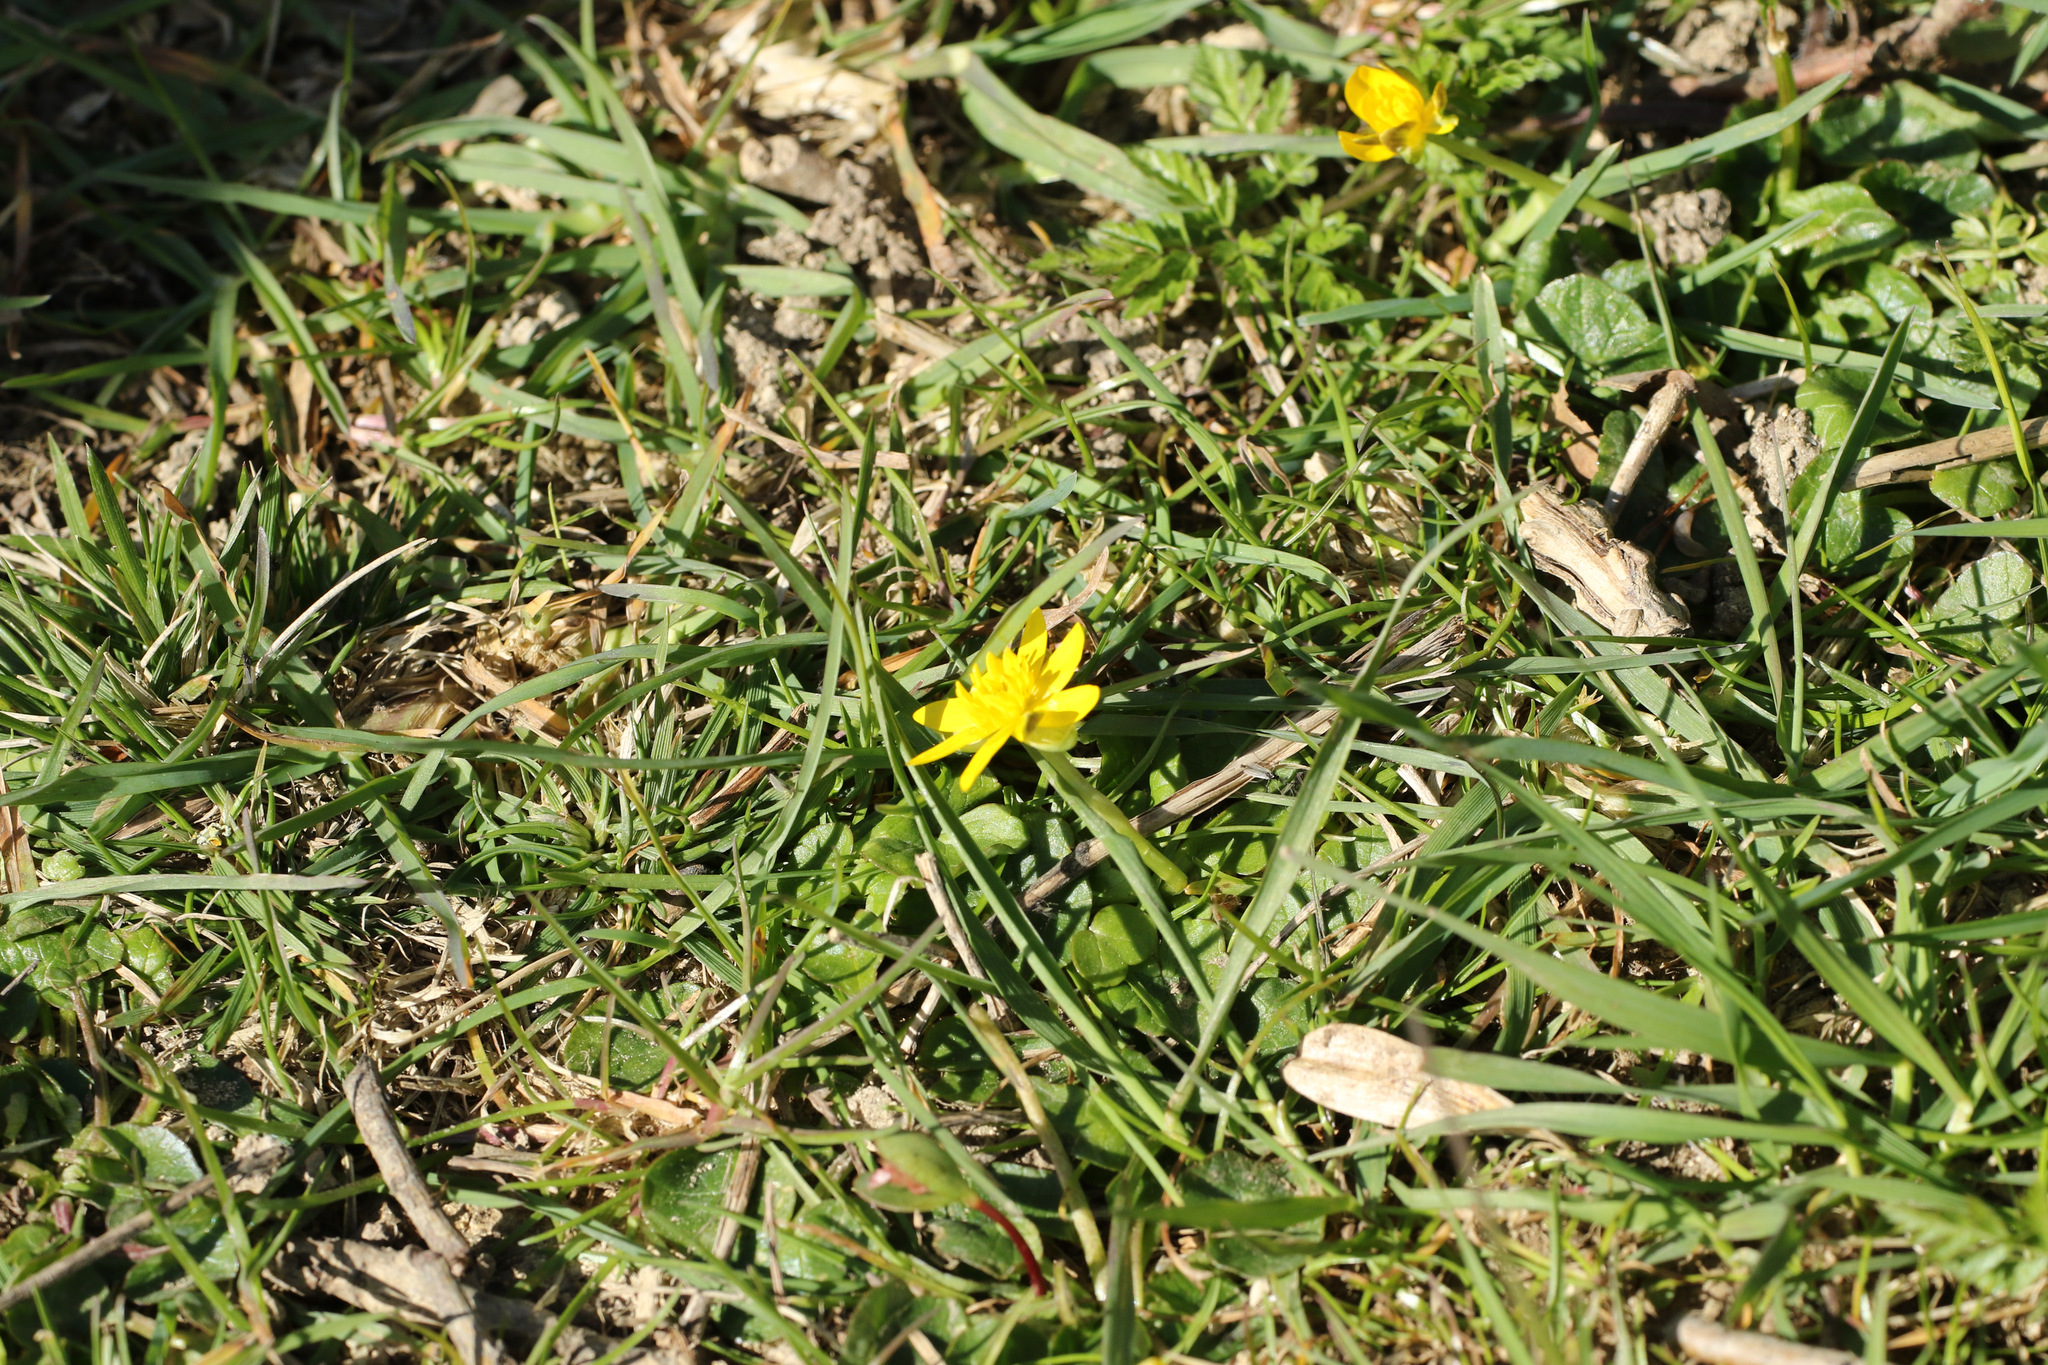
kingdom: Plantae
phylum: Tracheophyta
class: Magnoliopsida
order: Ranunculales
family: Ranunculaceae
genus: Ficaria
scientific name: Ficaria verna
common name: Lesser celandine
